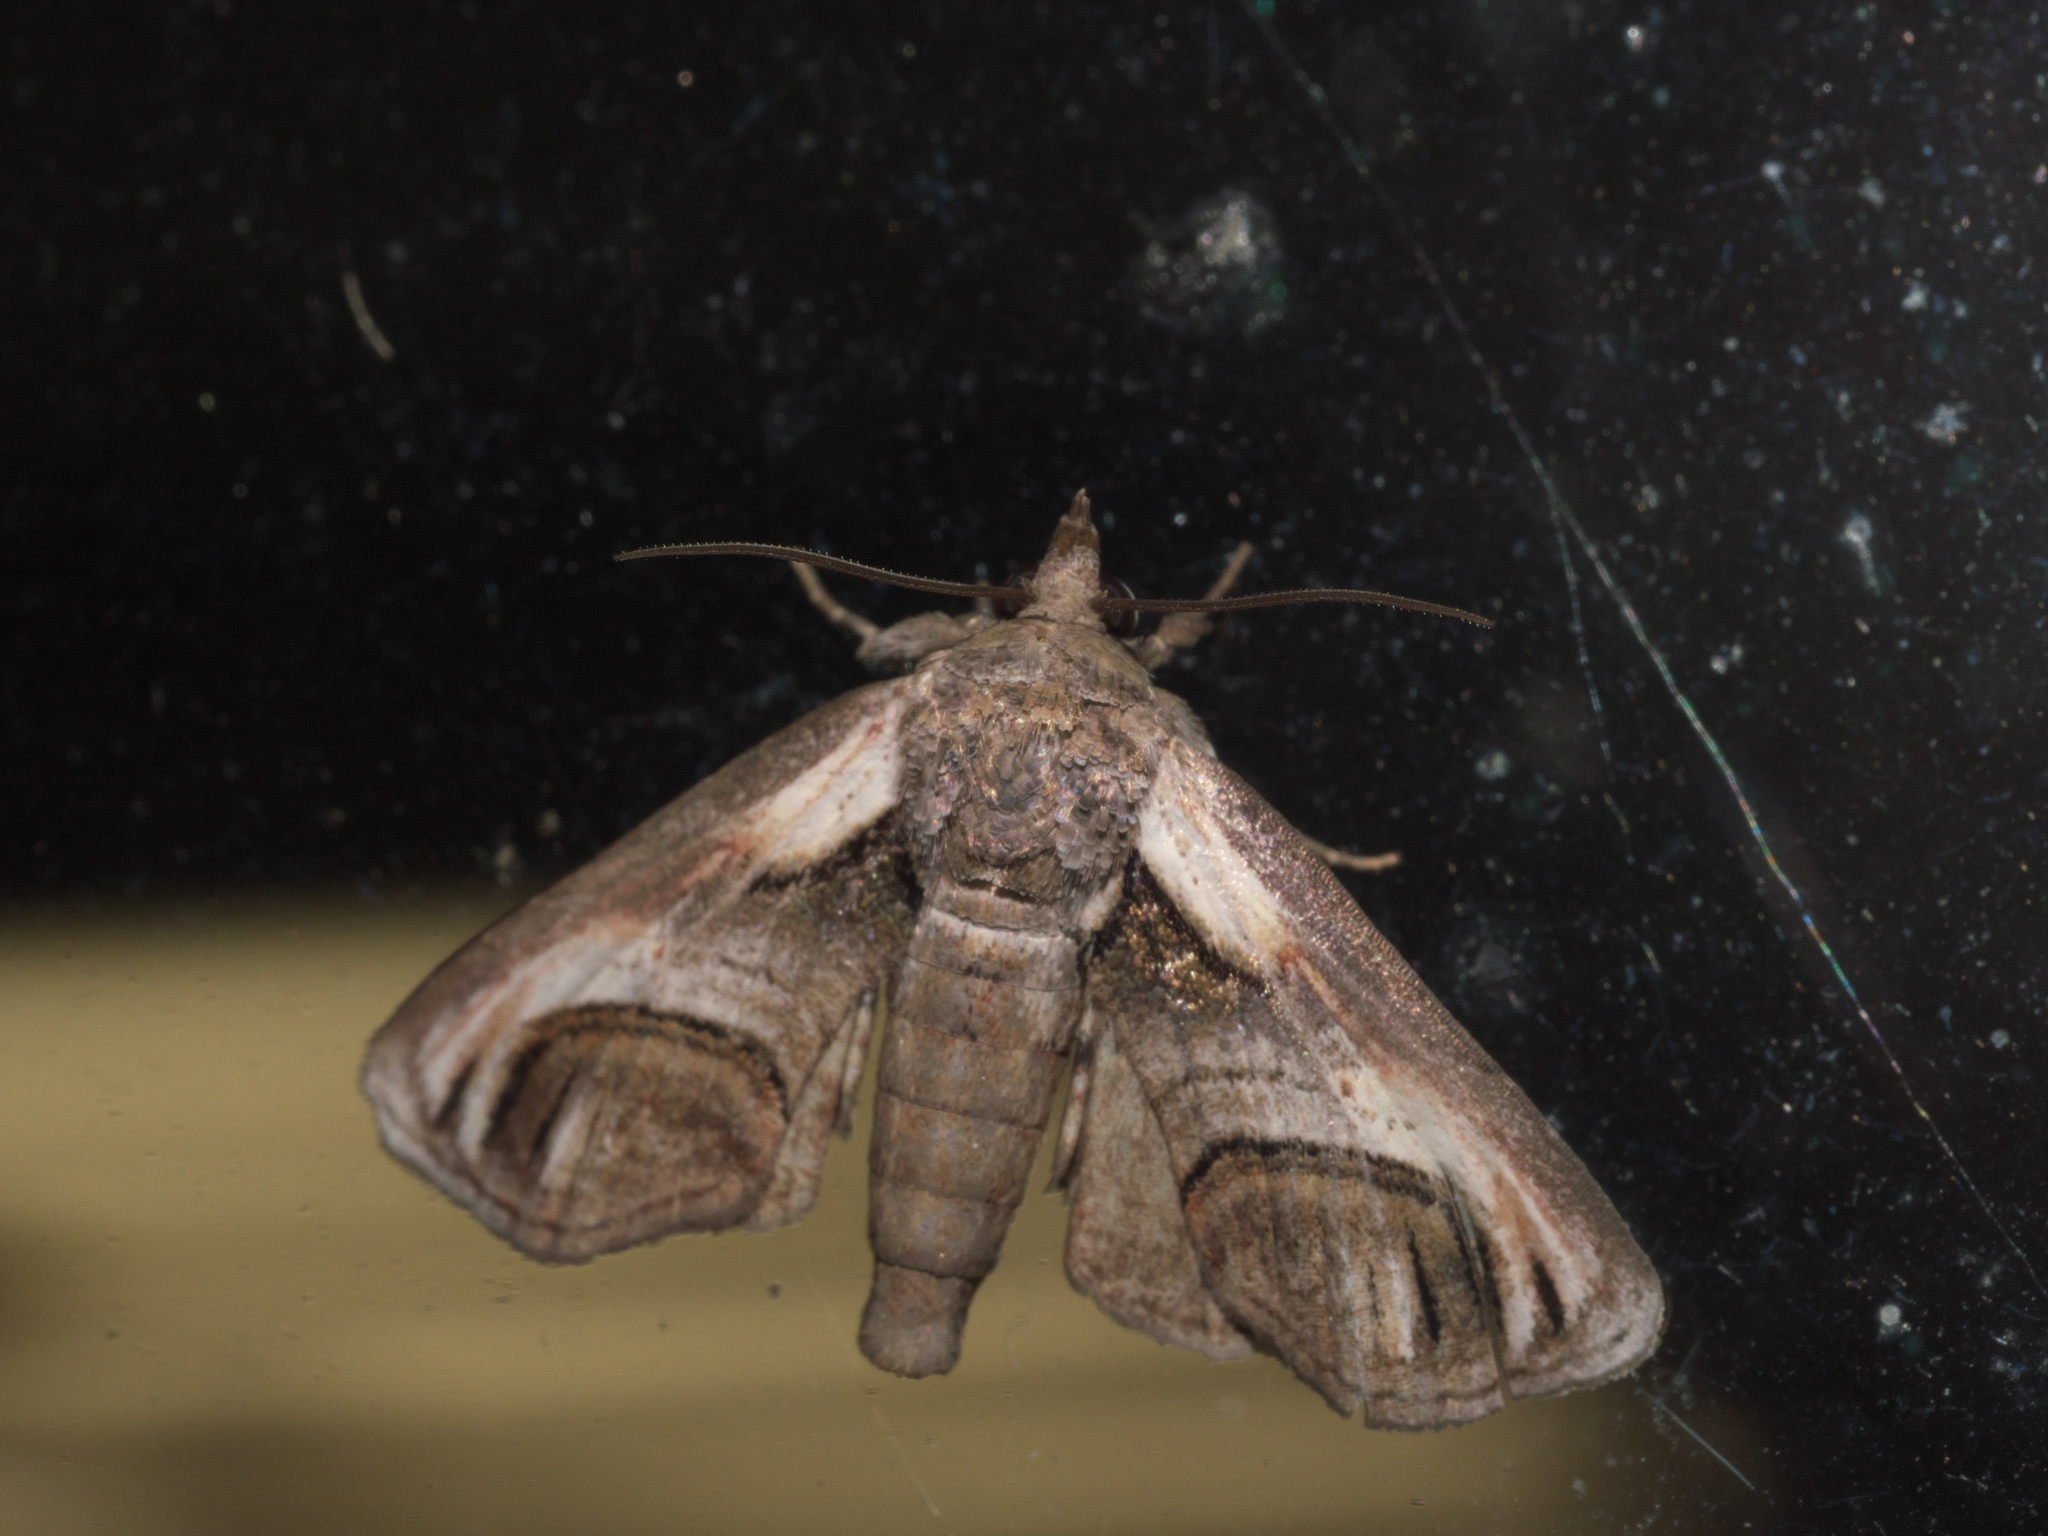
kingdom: Animalia
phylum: Arthropoda
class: Insecta
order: Lepidoptera
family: Euteliidae
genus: Paectes
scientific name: Paectes oculatrix
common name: Eyed paectes moth
